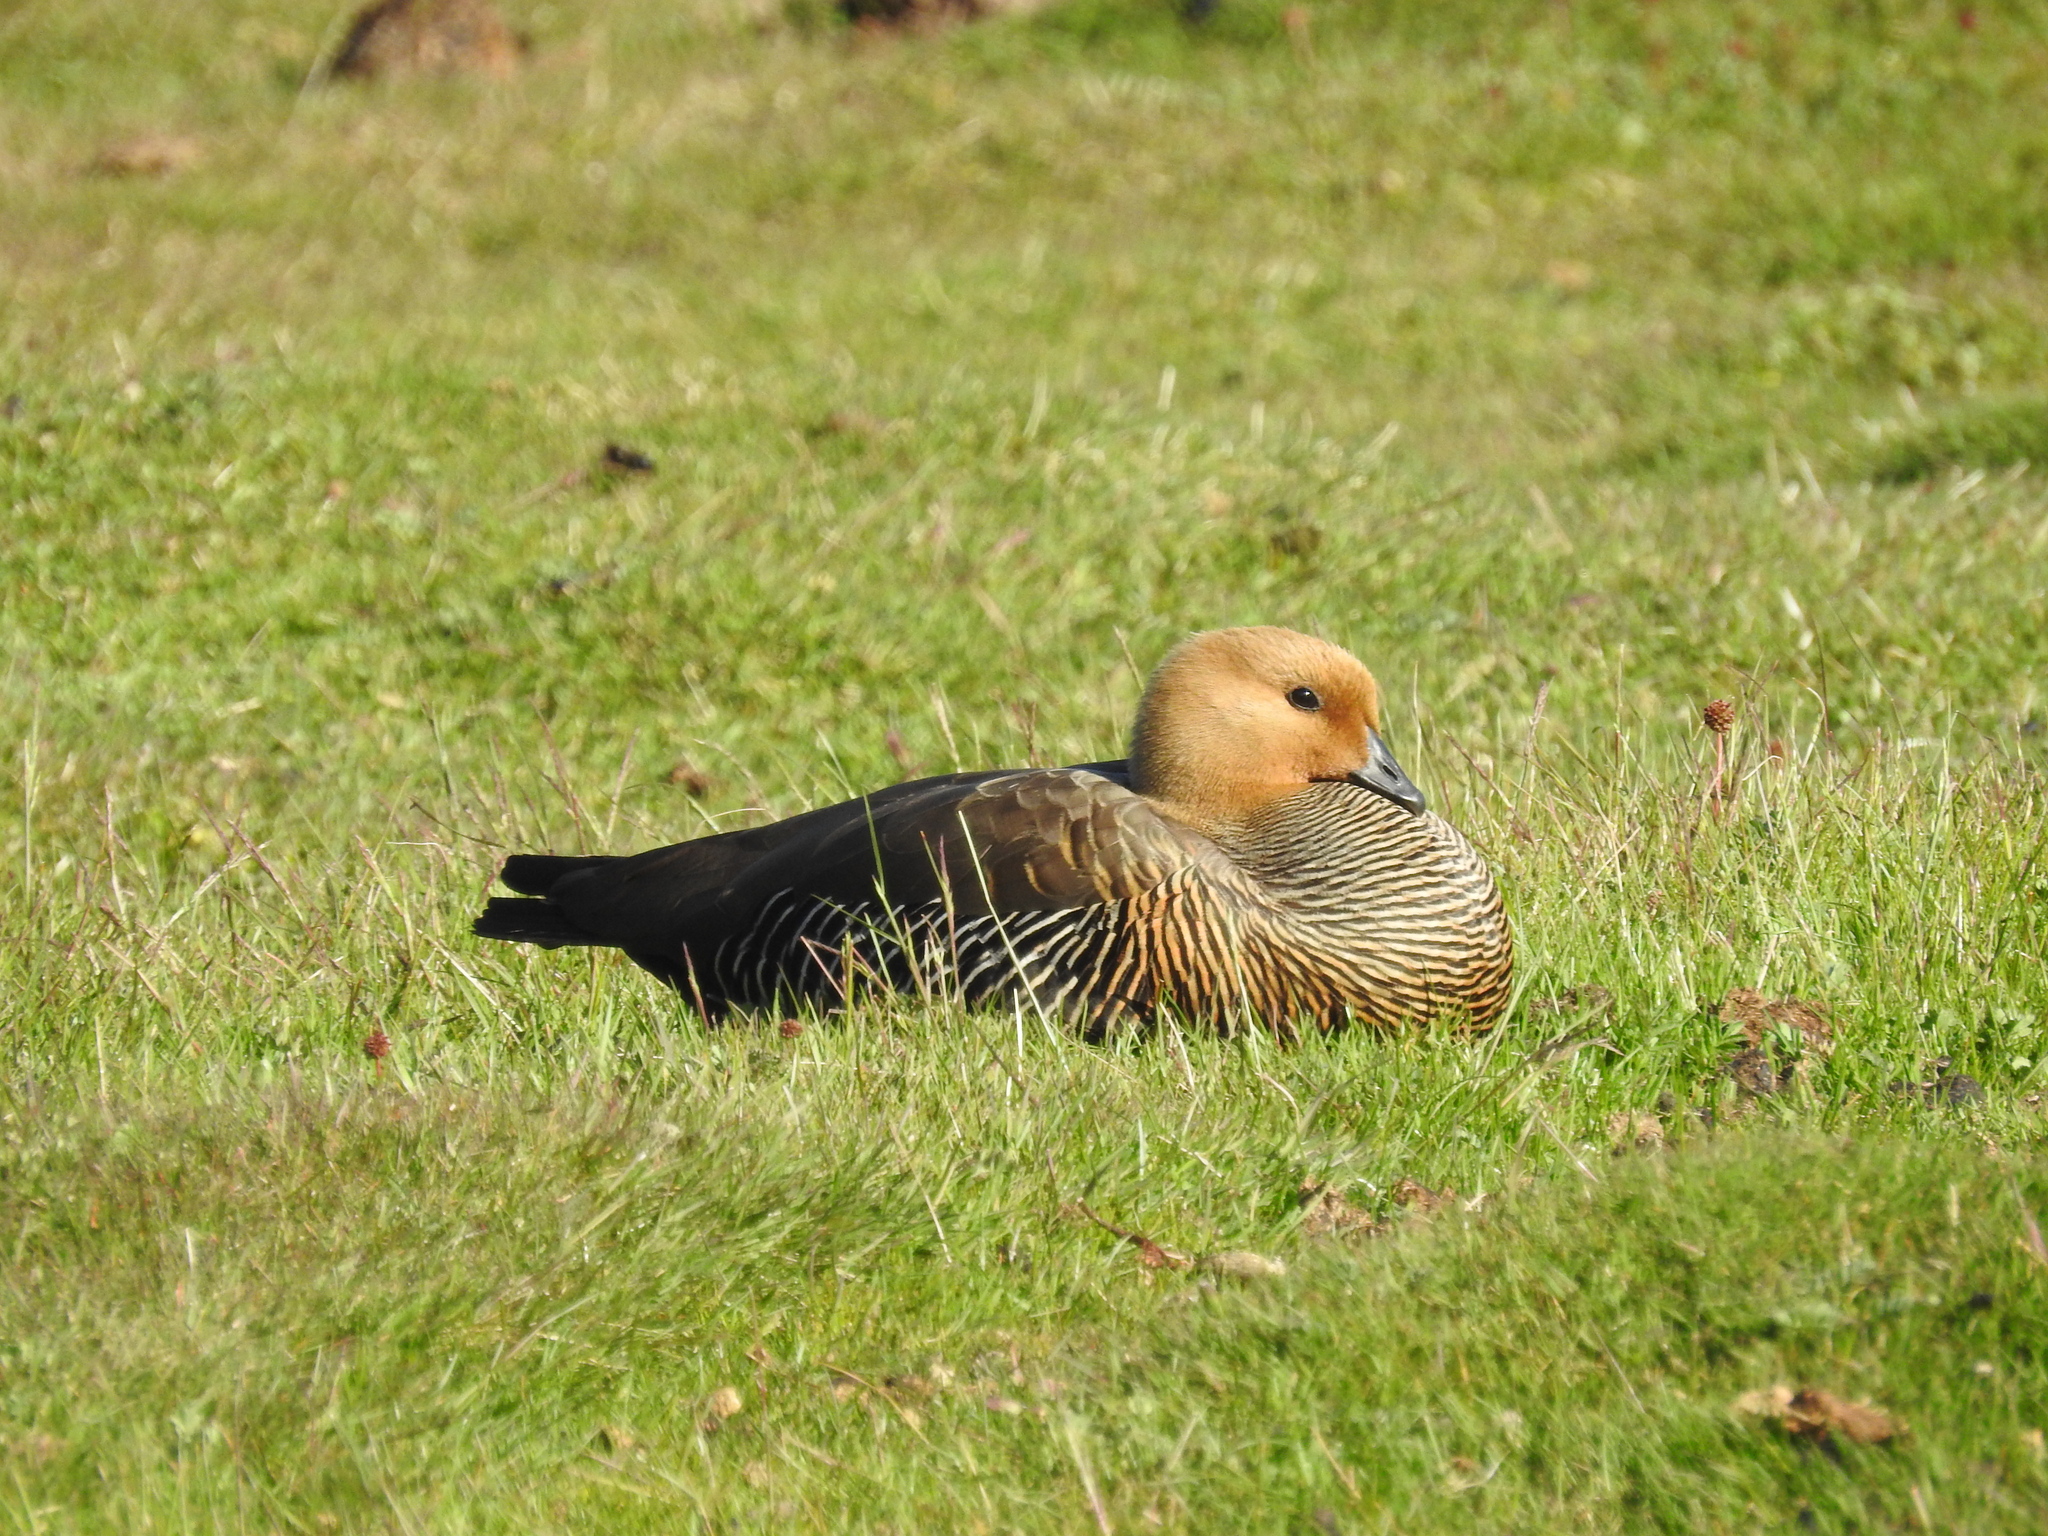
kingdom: Animalia
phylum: Chordata
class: Aves
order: Anseriformes
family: Anatidae
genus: Chloephaga
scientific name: Chloephaga picta
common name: Upland goose
